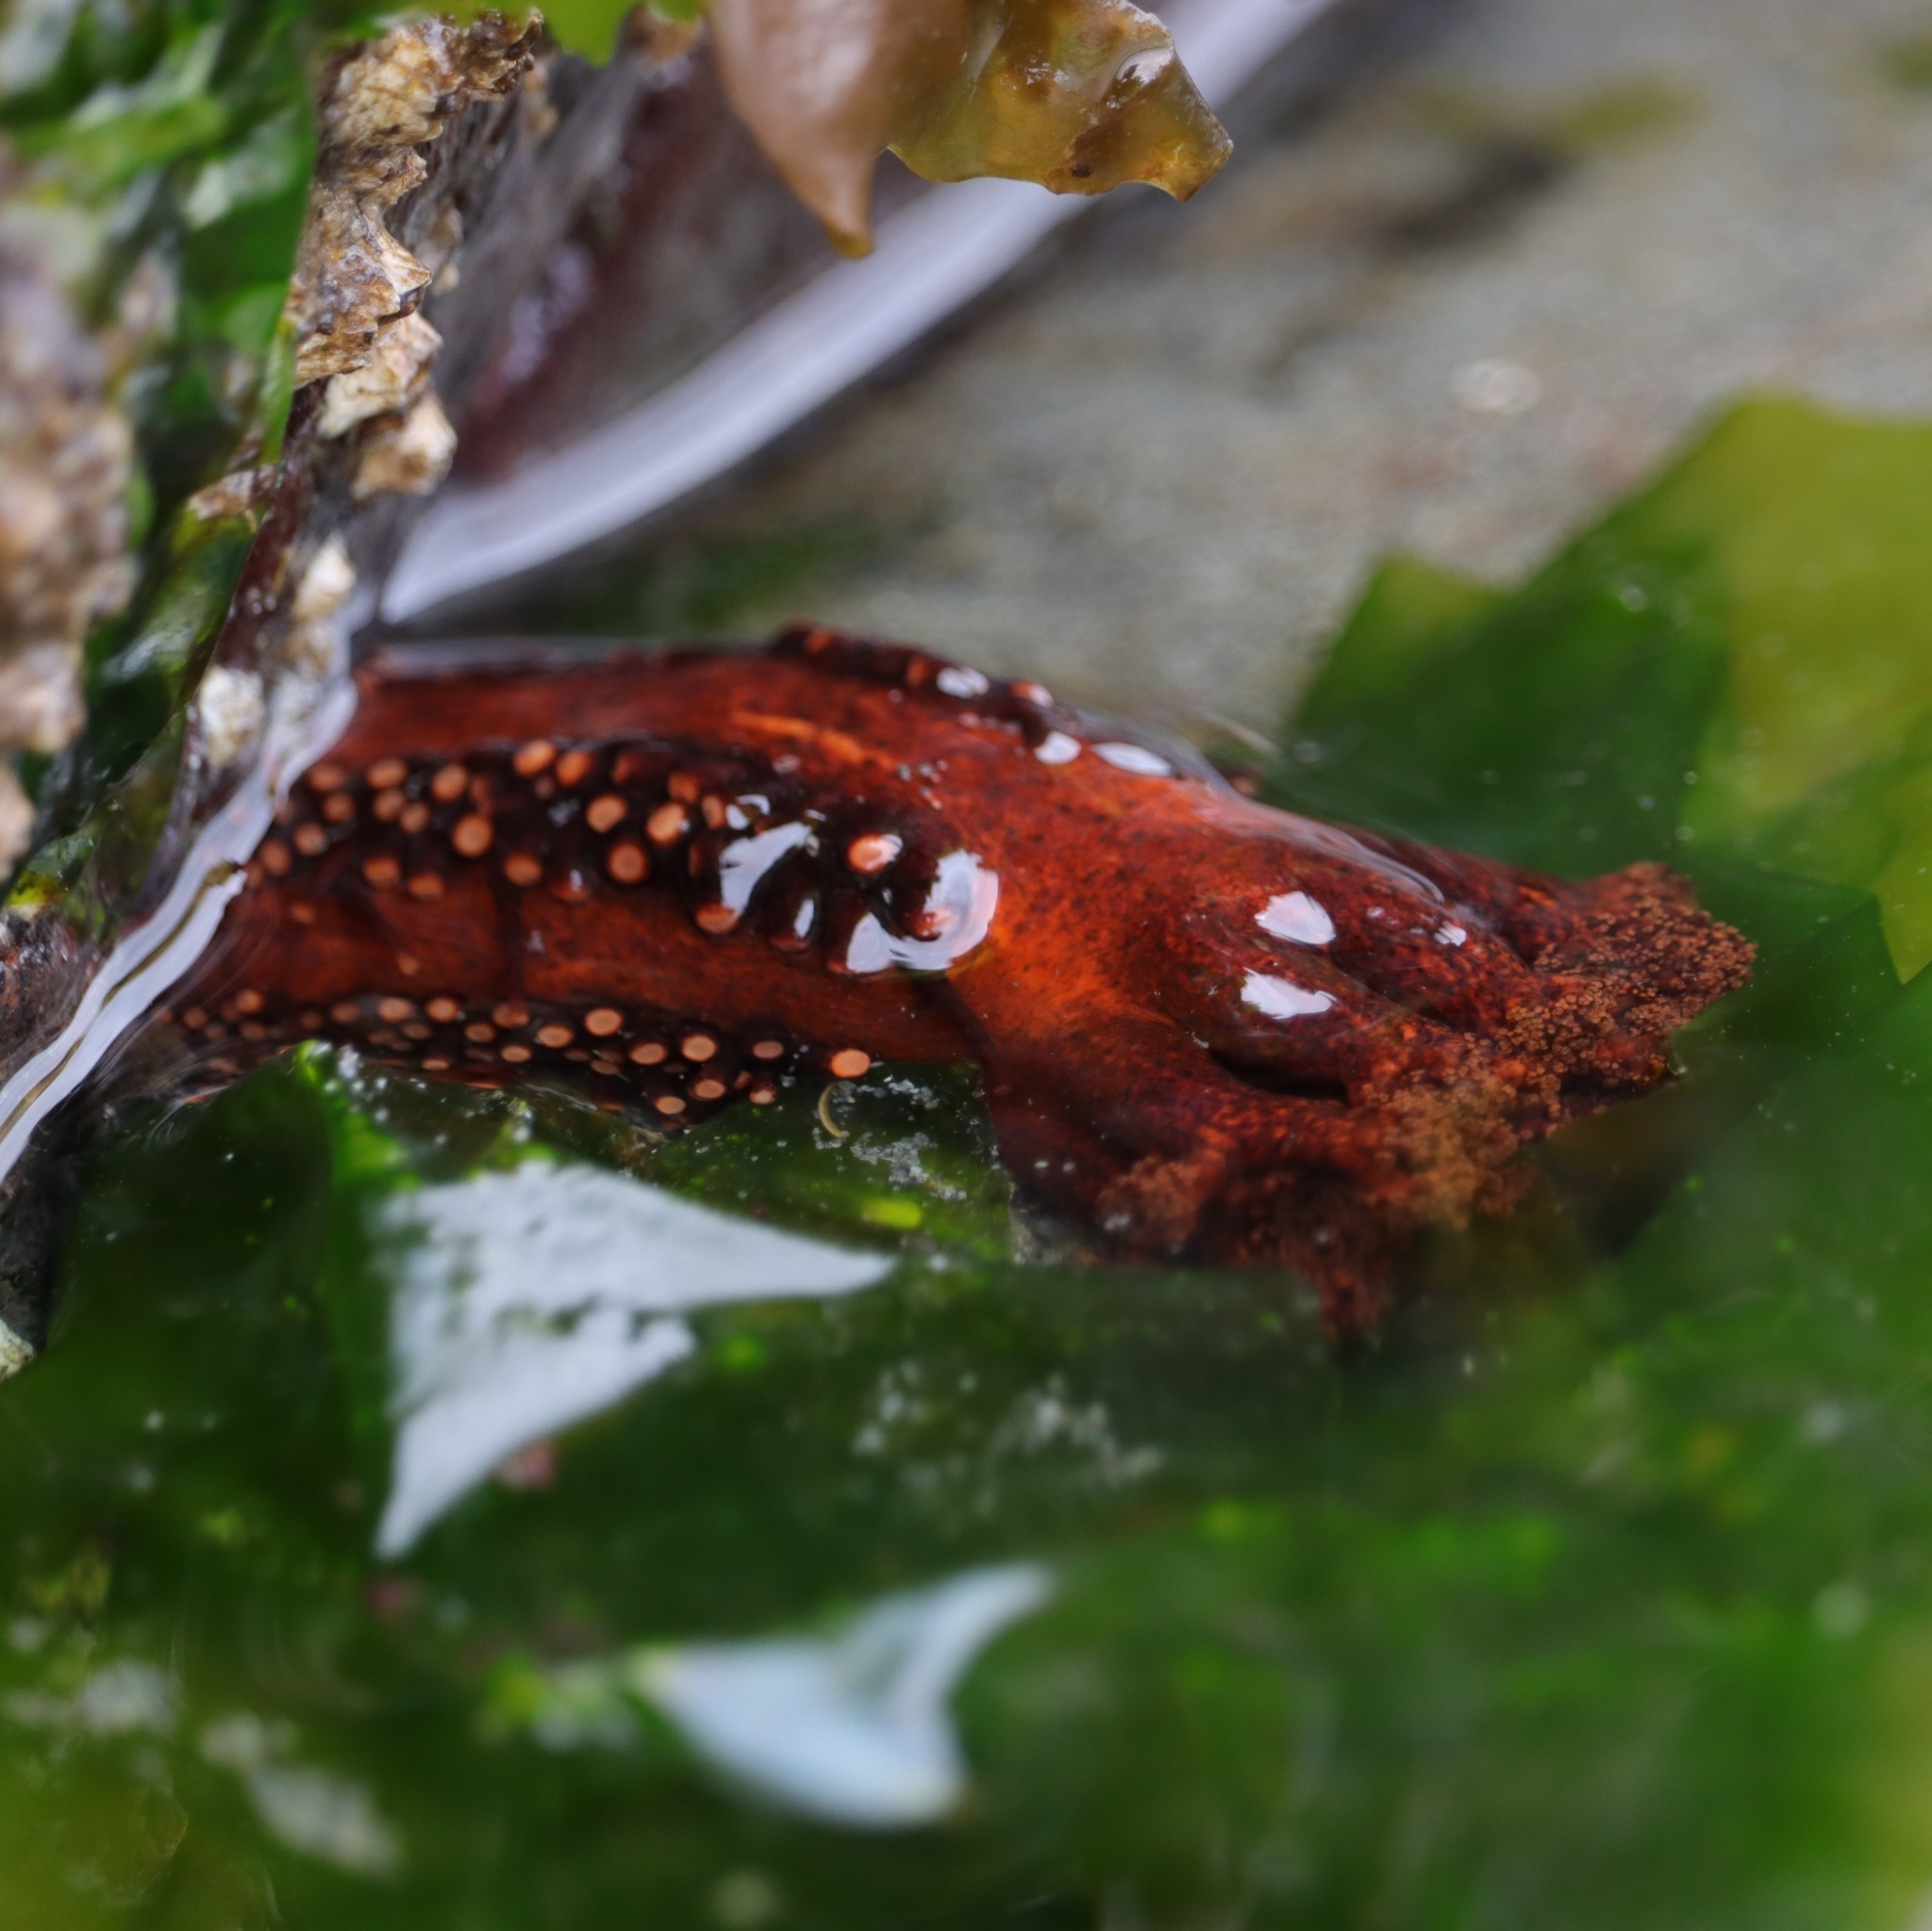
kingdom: Animalia
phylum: Echinodermata
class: Holothuroidea
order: Dendrochirotida
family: Cucumariidae
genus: Cucumaria
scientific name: Cucumaria miniata
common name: Orange sea cucumber
